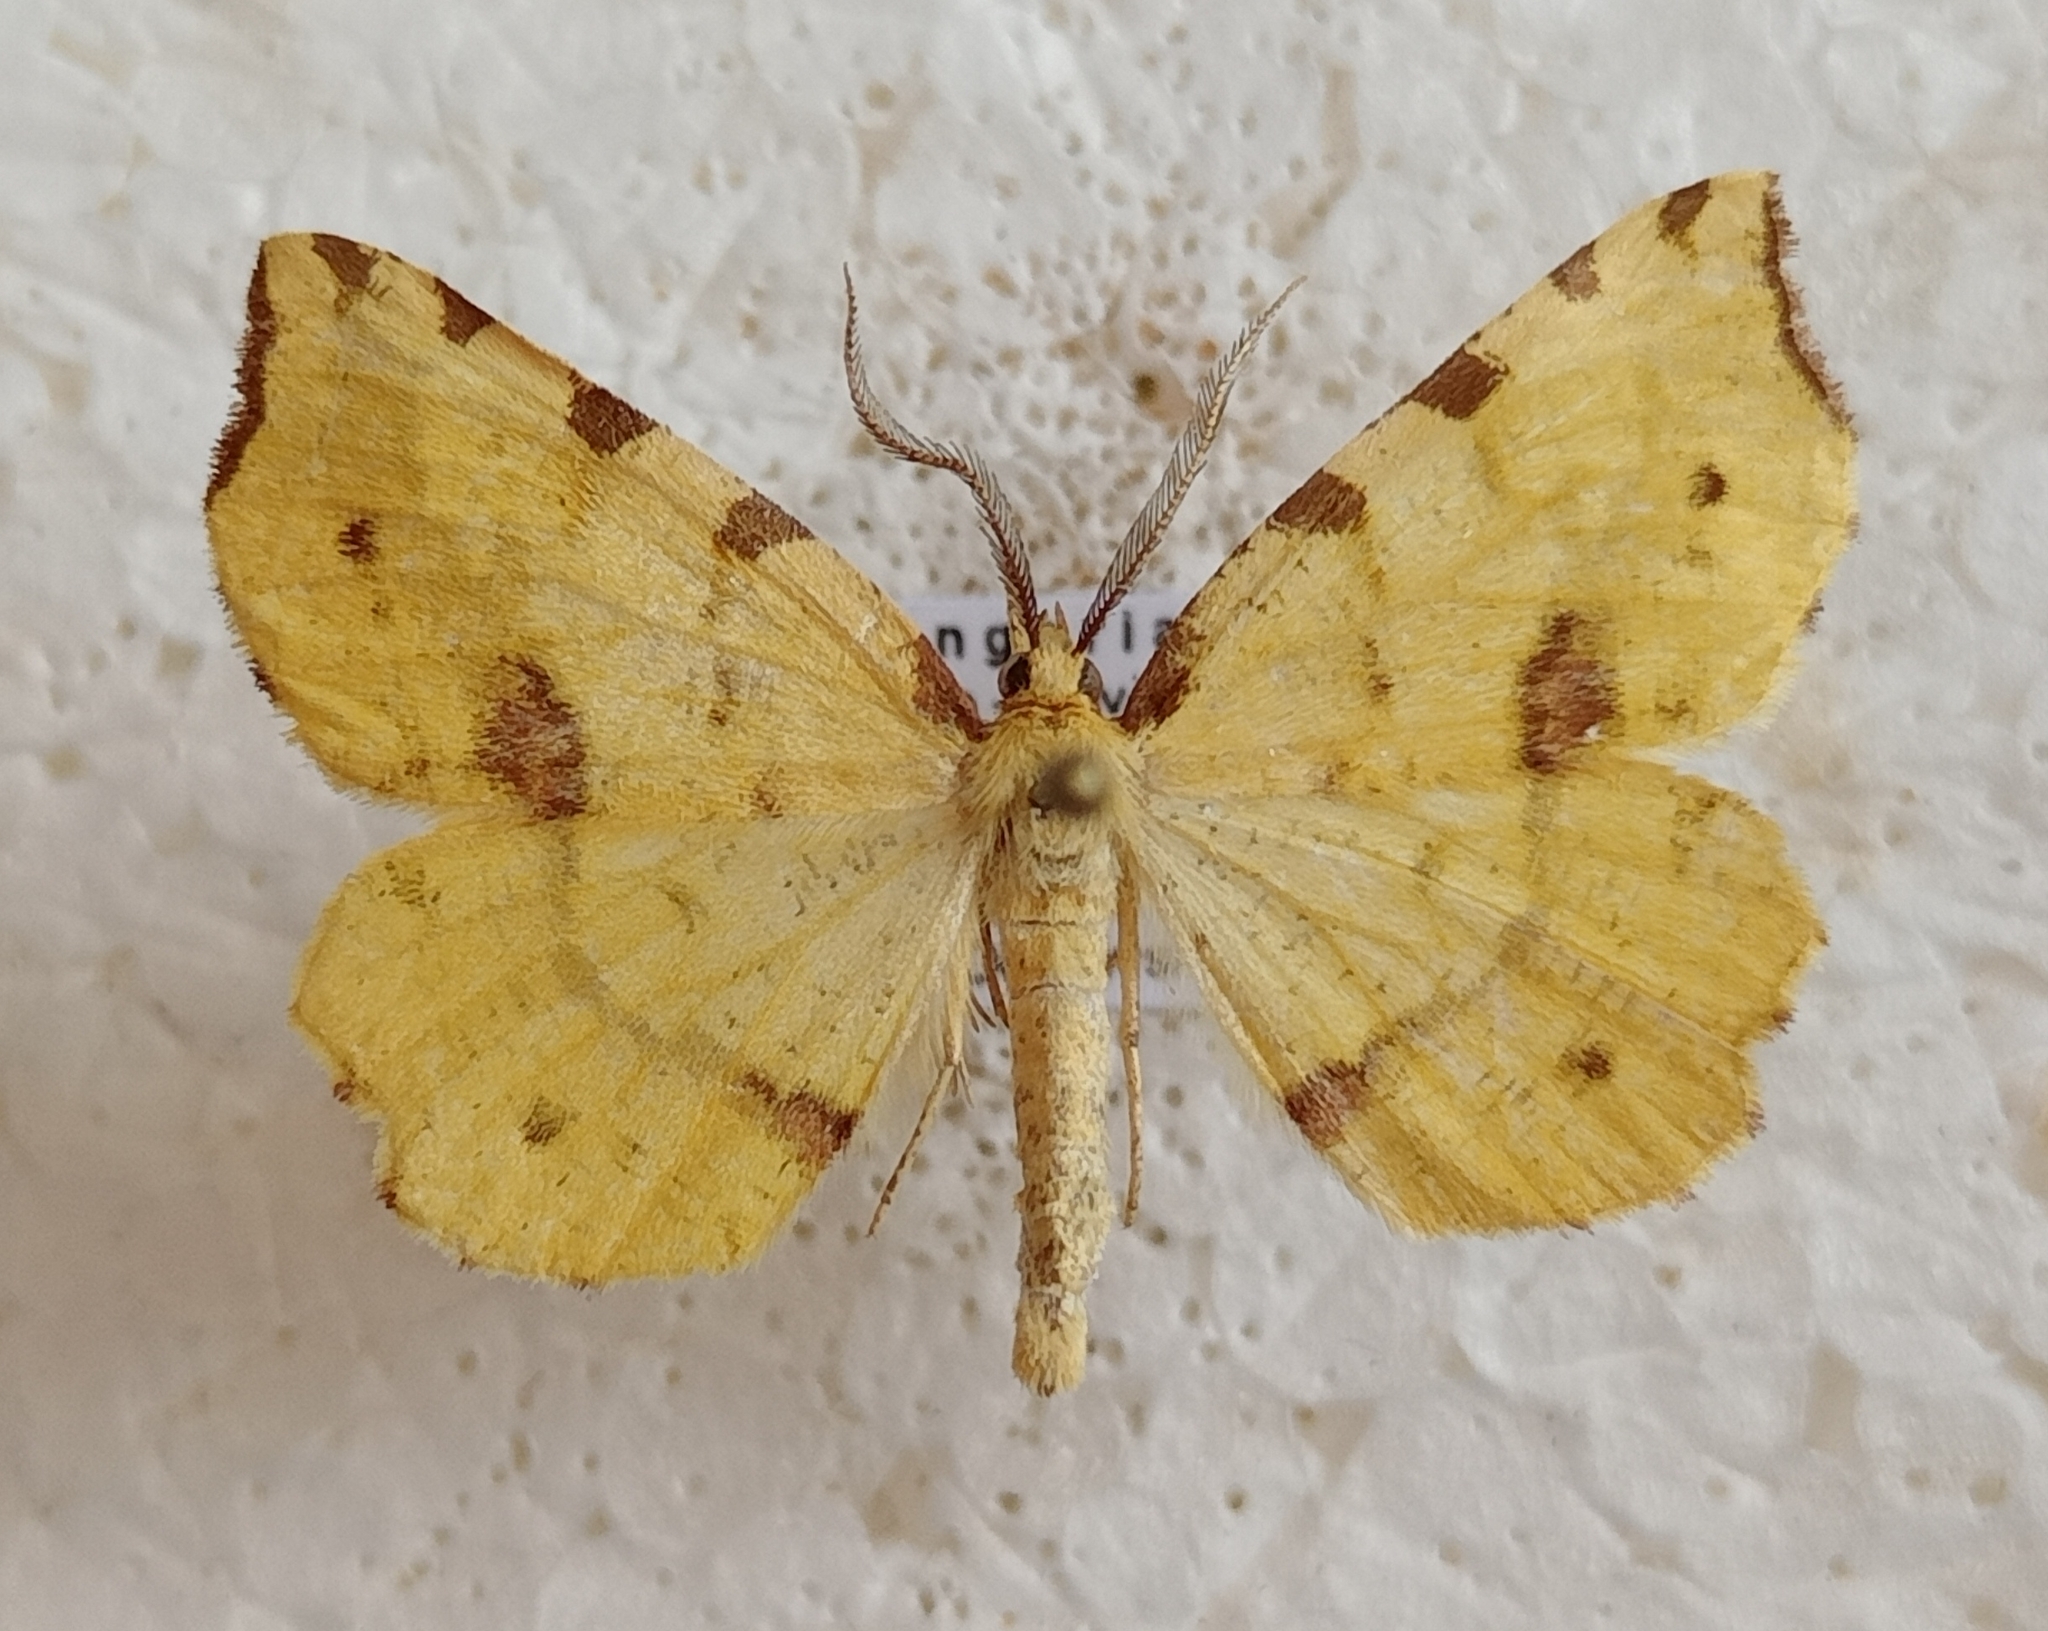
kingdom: Animalia
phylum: Arthropoda
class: Insecta
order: Lepidoptera
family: Geometridae
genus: Therapis
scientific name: Therapis flavicaria
